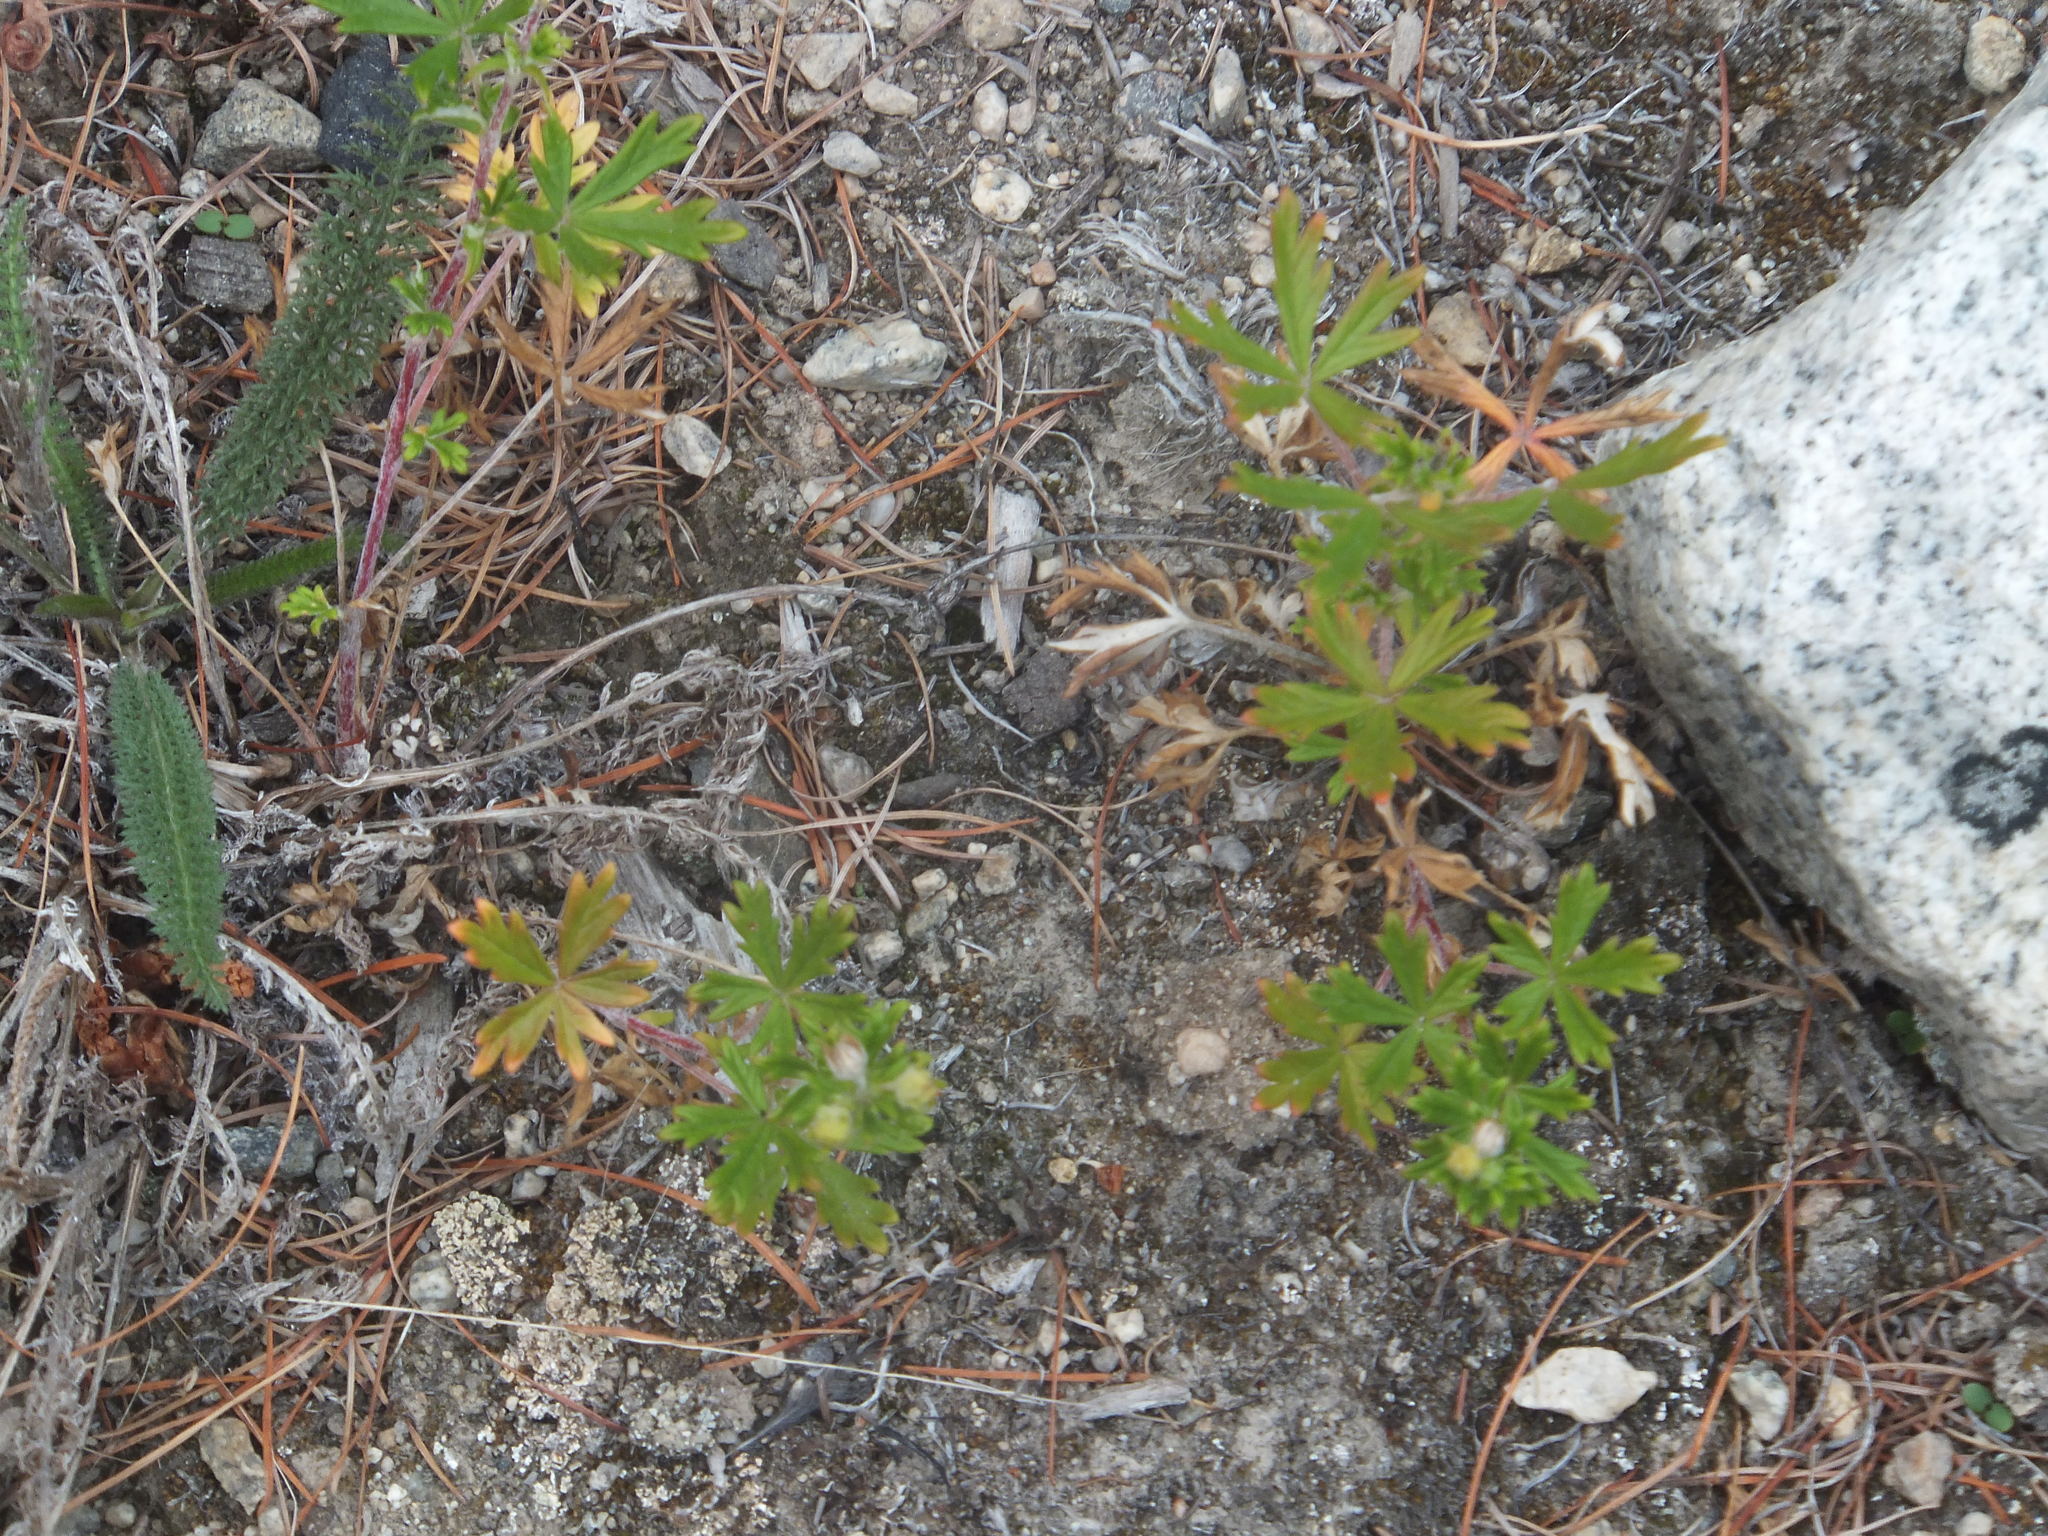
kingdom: Plantae
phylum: Tracheophyta
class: Magnoliopsida
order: Rosales
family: Rosaceae
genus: Potentilla
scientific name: Potentilla argentea
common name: Hoary cinquefoil
